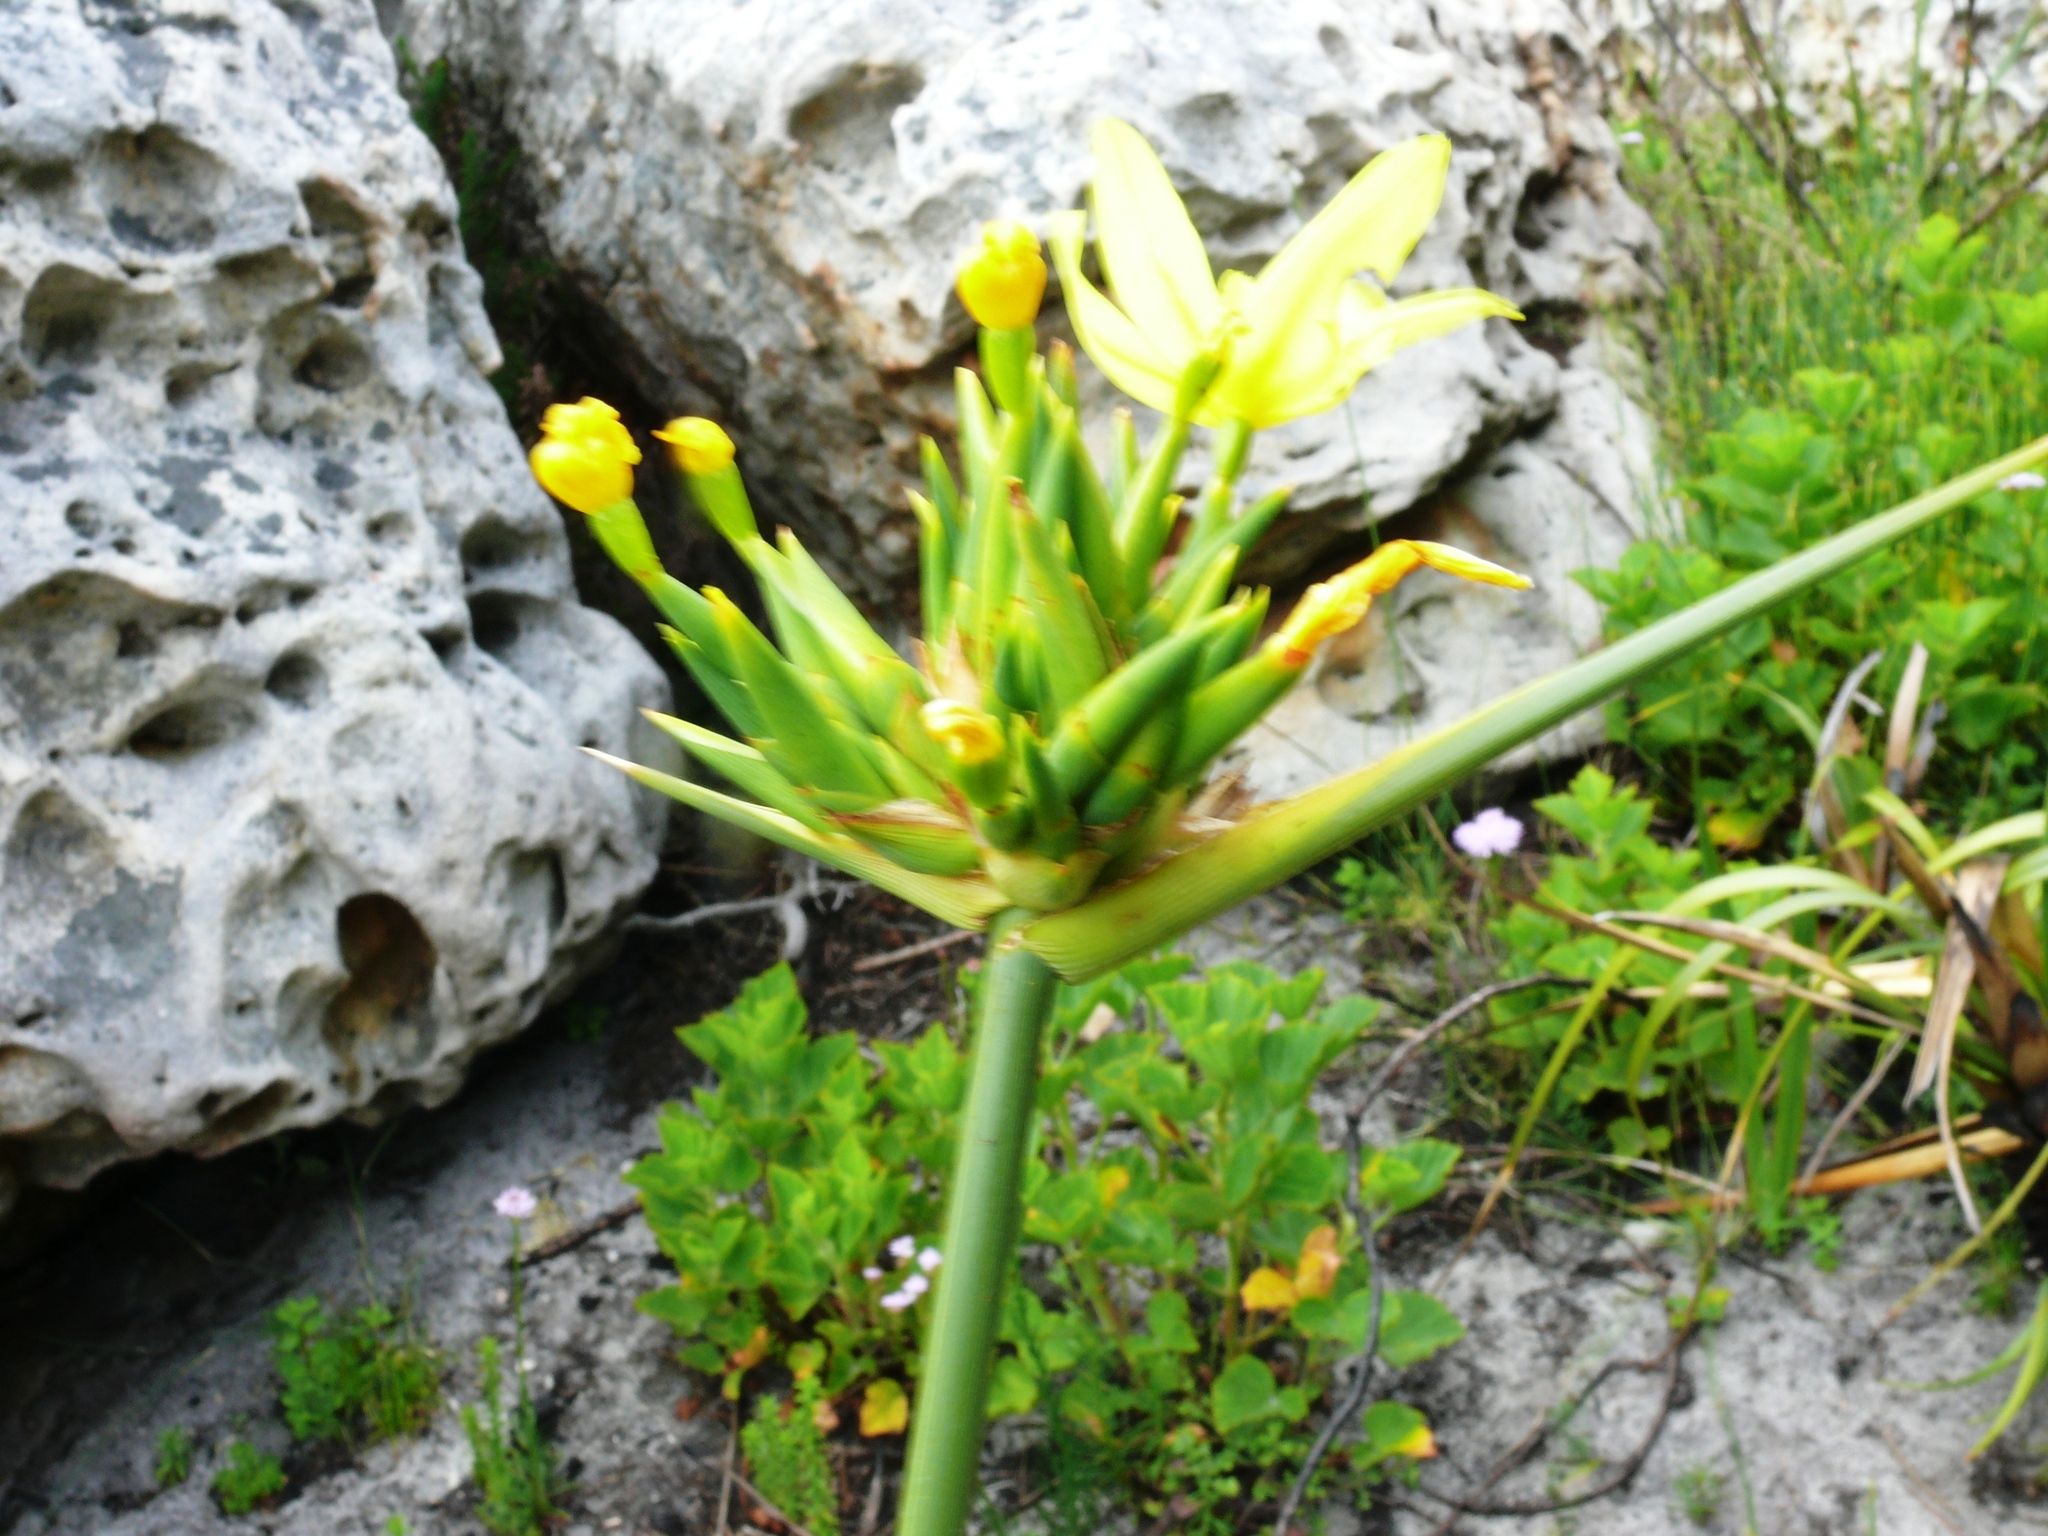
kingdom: Plantae
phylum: Tracheophyta
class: Liliopsida
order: Asparagales
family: Iridaceae
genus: Bobartia
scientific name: Bobartia indica
